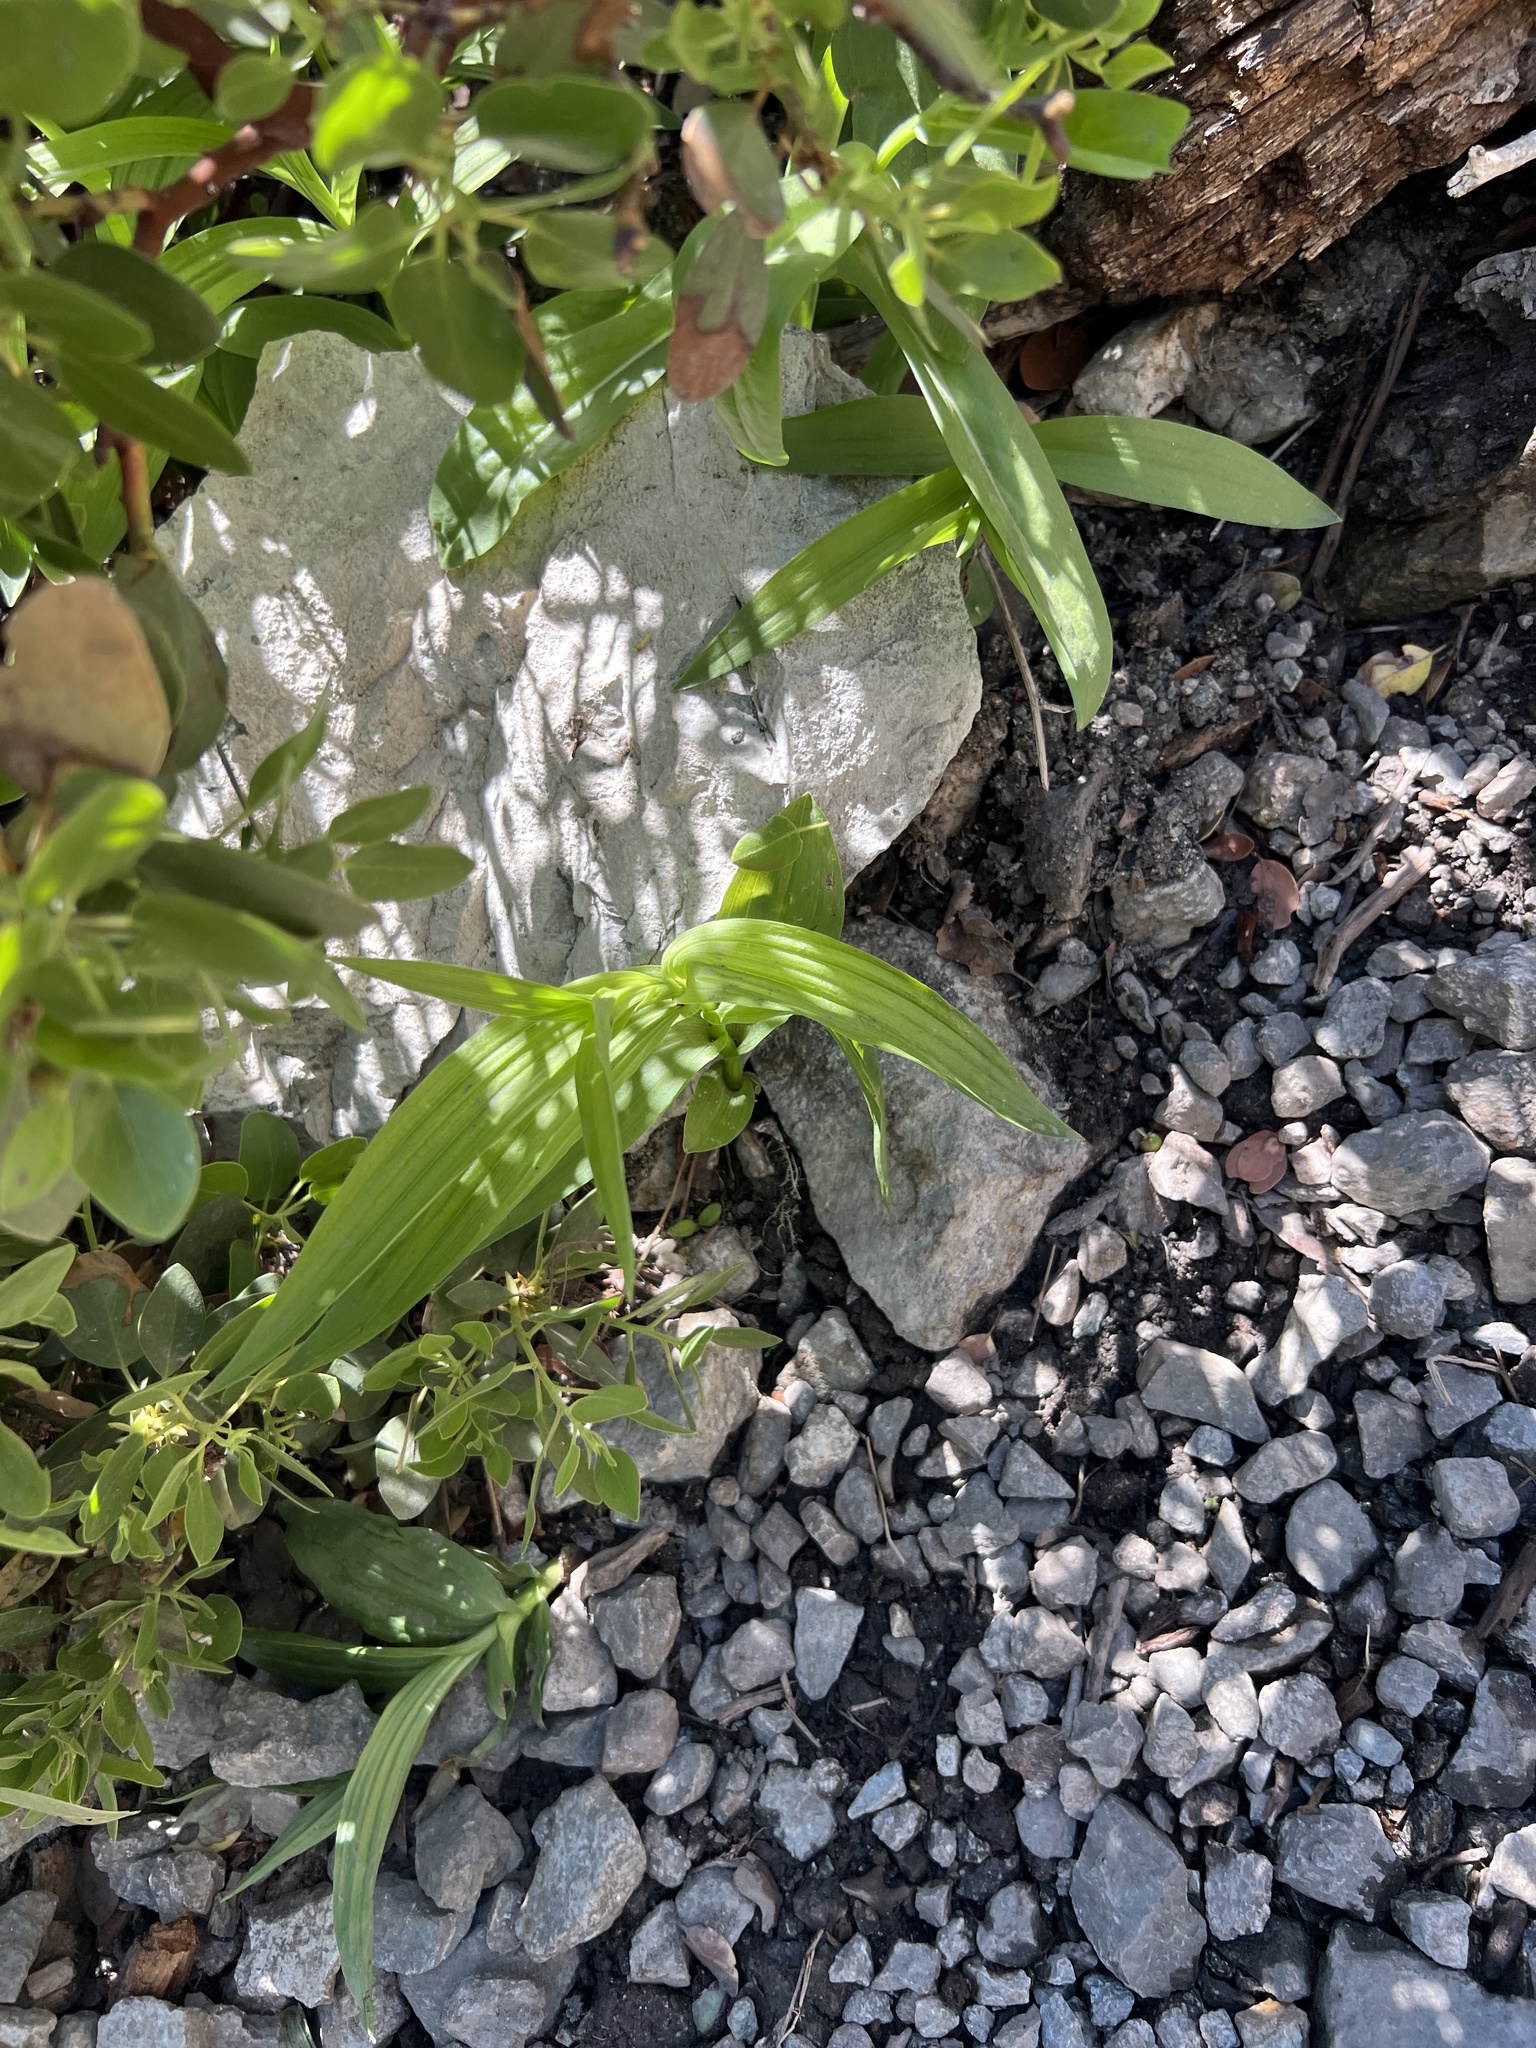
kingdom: Plantae
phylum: Tracheophyta
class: Liliopsida
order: Asparagales
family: Orchidaceae
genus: Epipactis
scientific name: Epipactis gigantea
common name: Chatterbox
